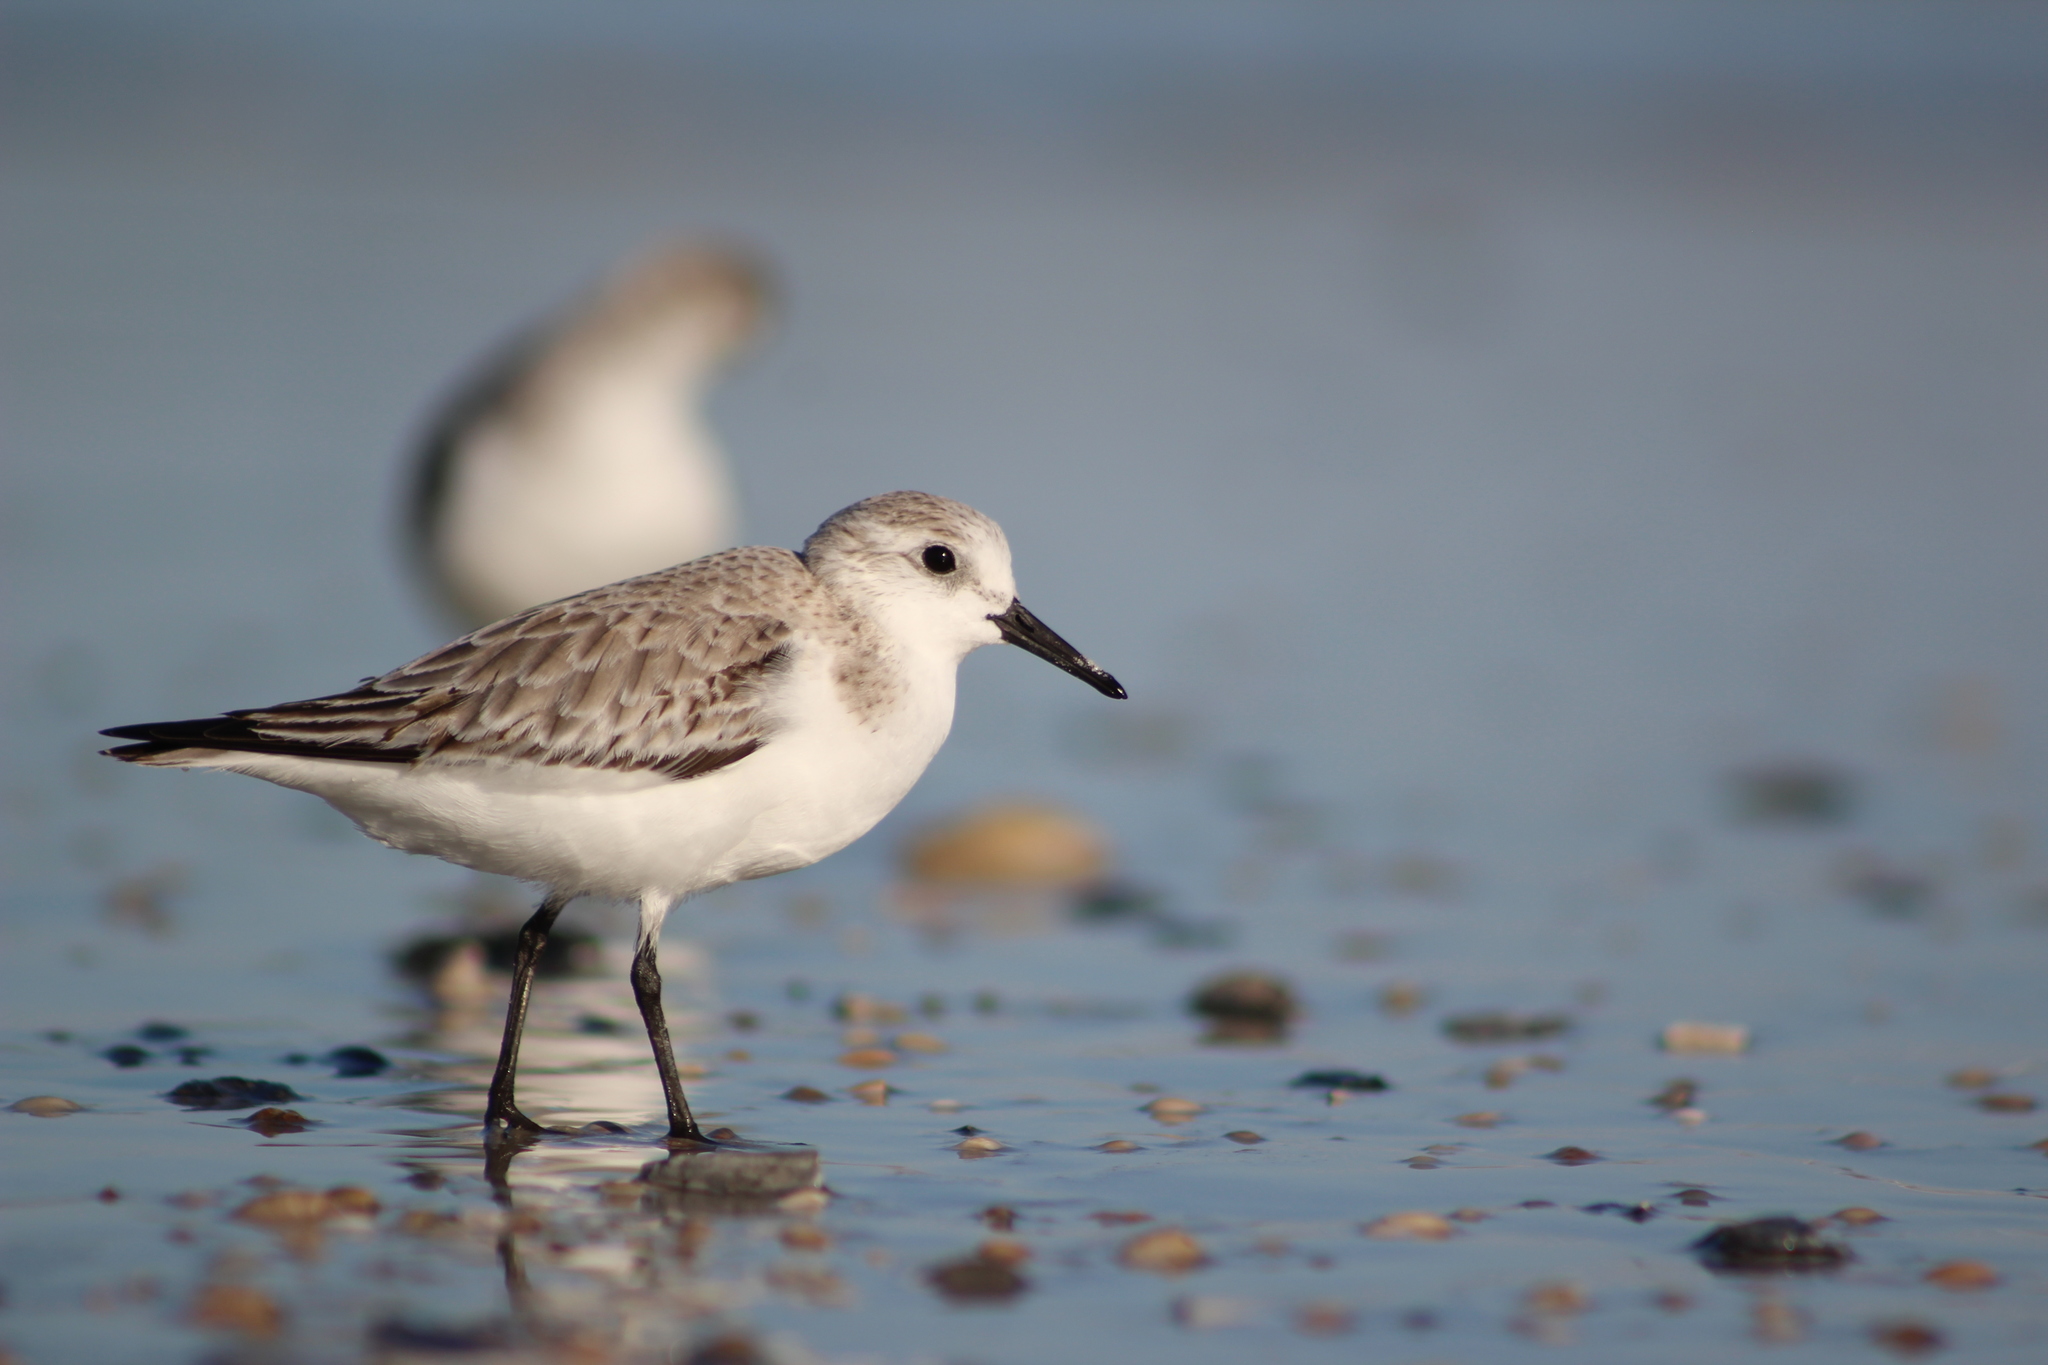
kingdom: Animalia
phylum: Chordata
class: Aves
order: Charadriiformes
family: Scolopacidae
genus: Calidris
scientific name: Calidris alba
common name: Sanderling
